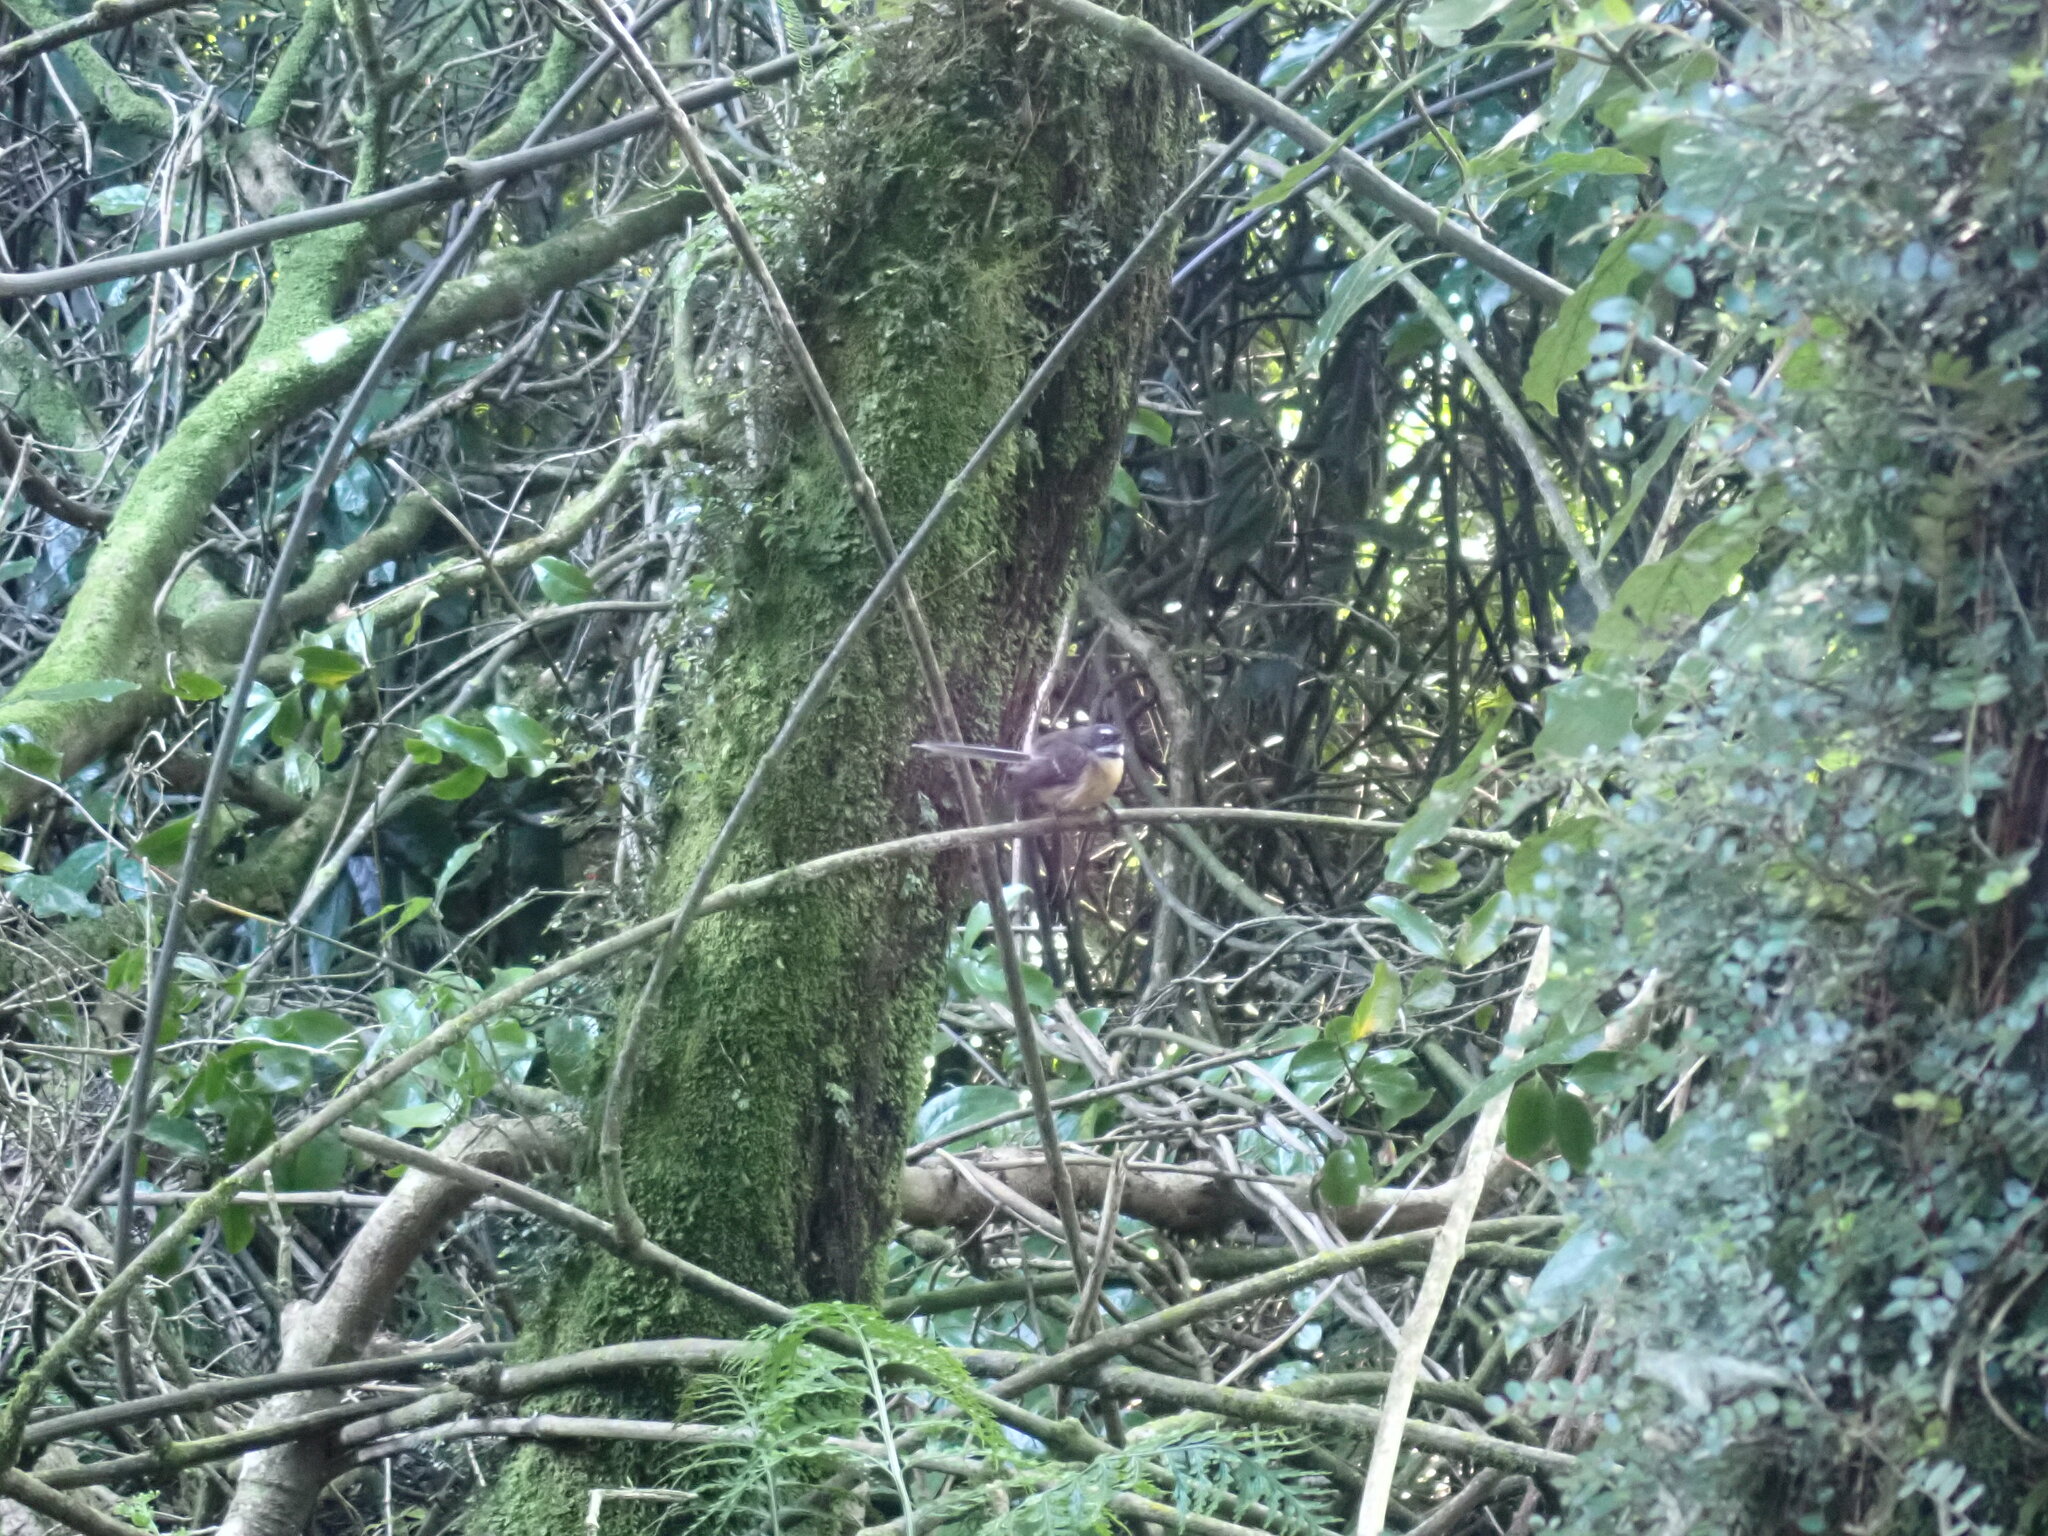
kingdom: Animalia
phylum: Chordata
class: Aves
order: Passeriformes
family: Rhipiduridae
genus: Rhipidura
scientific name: Rhipidura fuliginosa
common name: New zealand fantail
